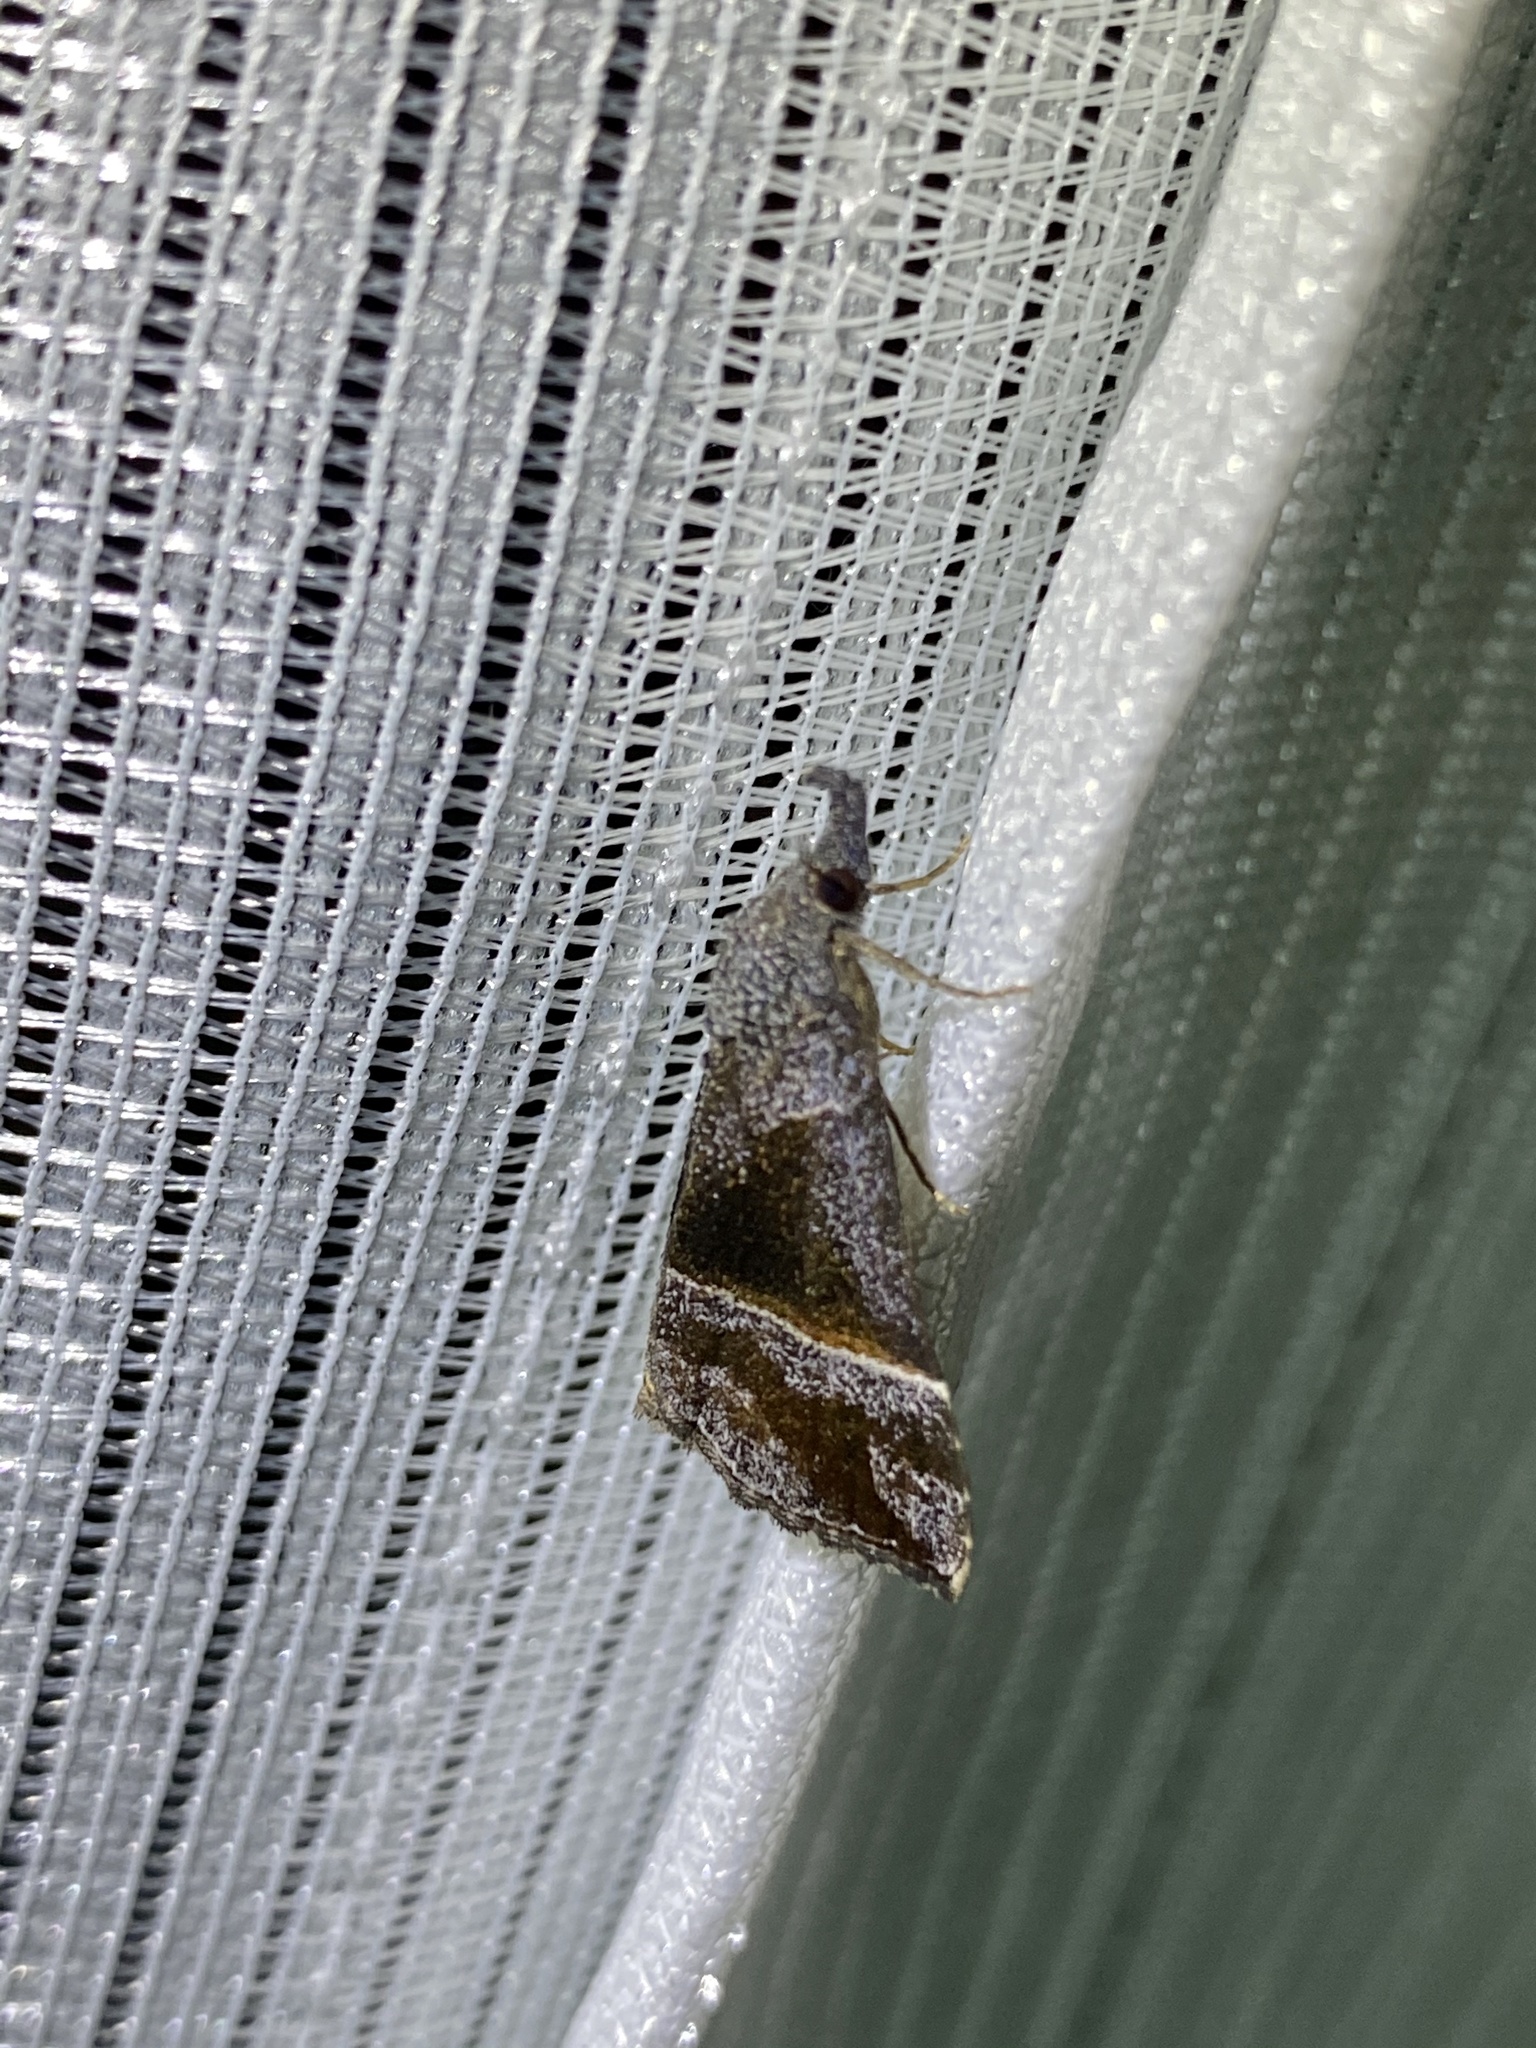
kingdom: Animalia
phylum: Arthropoda
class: Insecta
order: Lepidoptera
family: Erebidae
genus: Hypena
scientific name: Hypena amica
